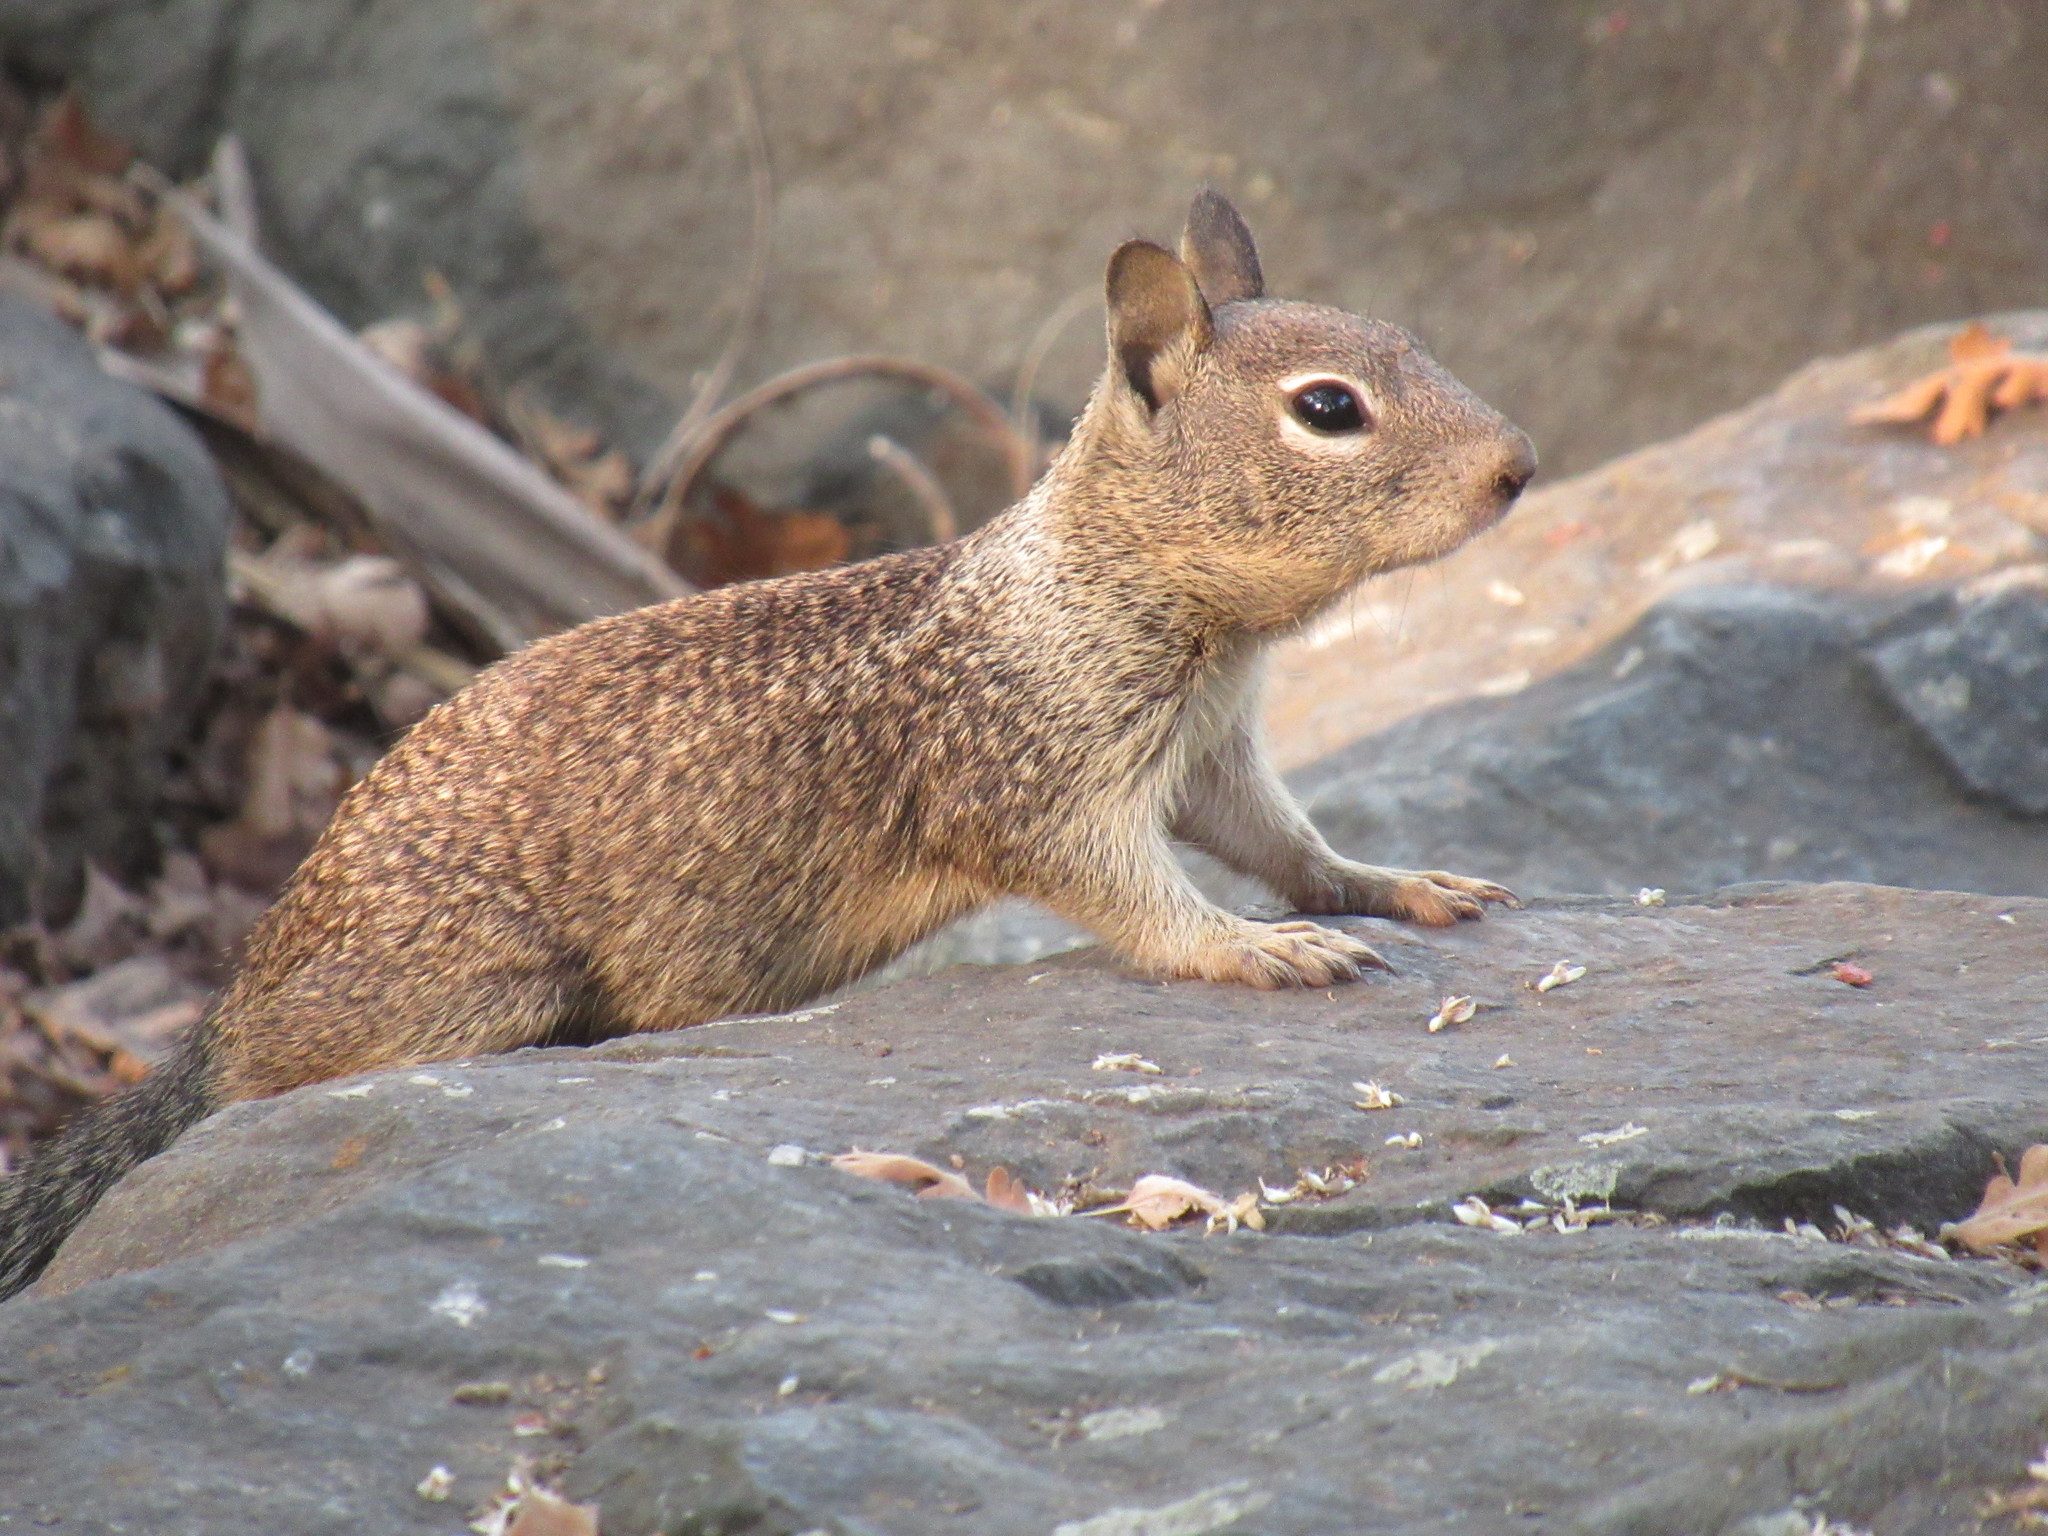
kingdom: Animalia
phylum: Chordata
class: Mammalia
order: Rodentia
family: Sciuridae
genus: Otospermophilus
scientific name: Otospermophilus beecheyi
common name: California ground squirrel
